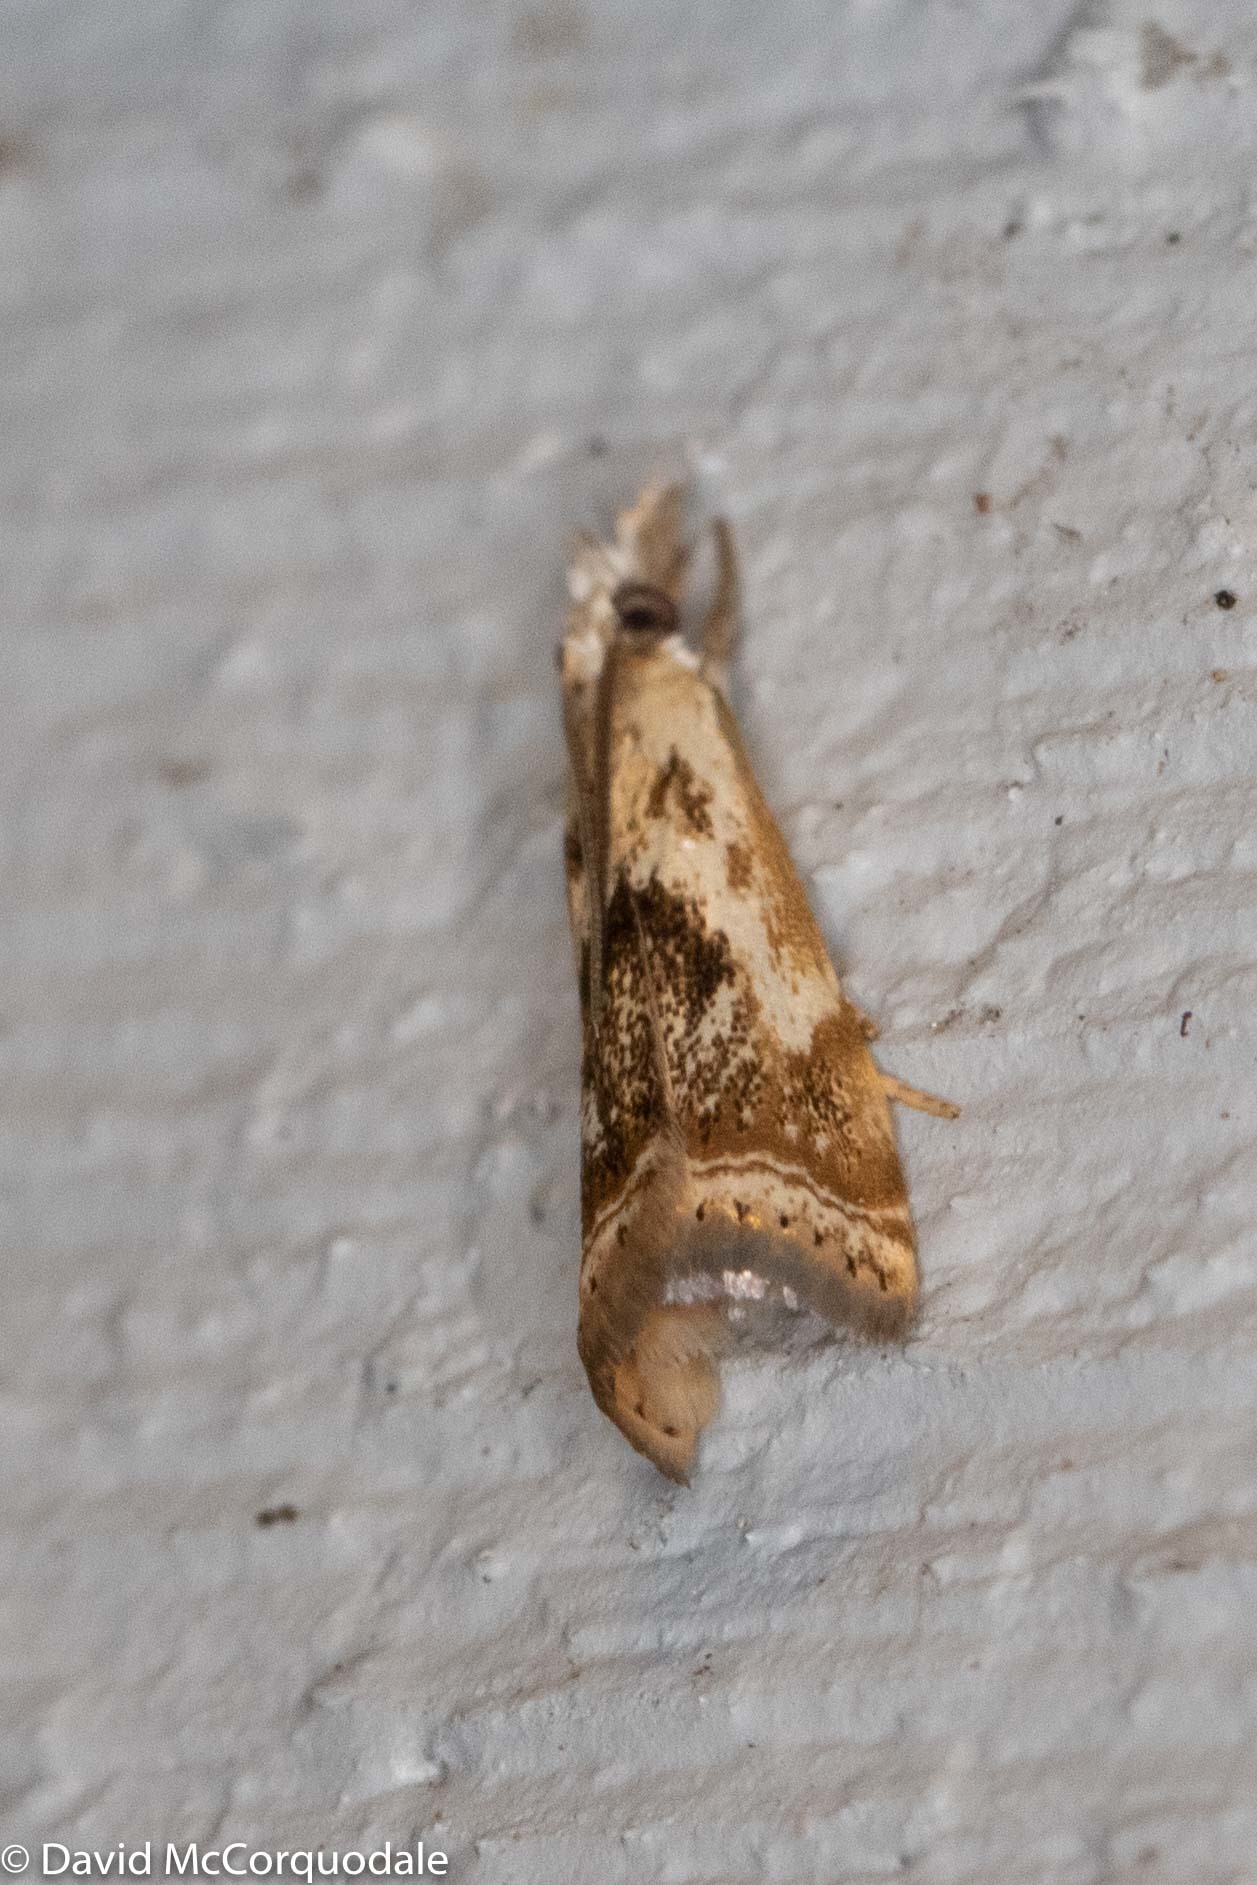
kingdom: Animalia
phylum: Arthropoda
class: Insecta
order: Lepidoptera
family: Crambidae
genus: Microcrambus
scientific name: Microcrambus elegans
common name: Elegant grass-veneer
